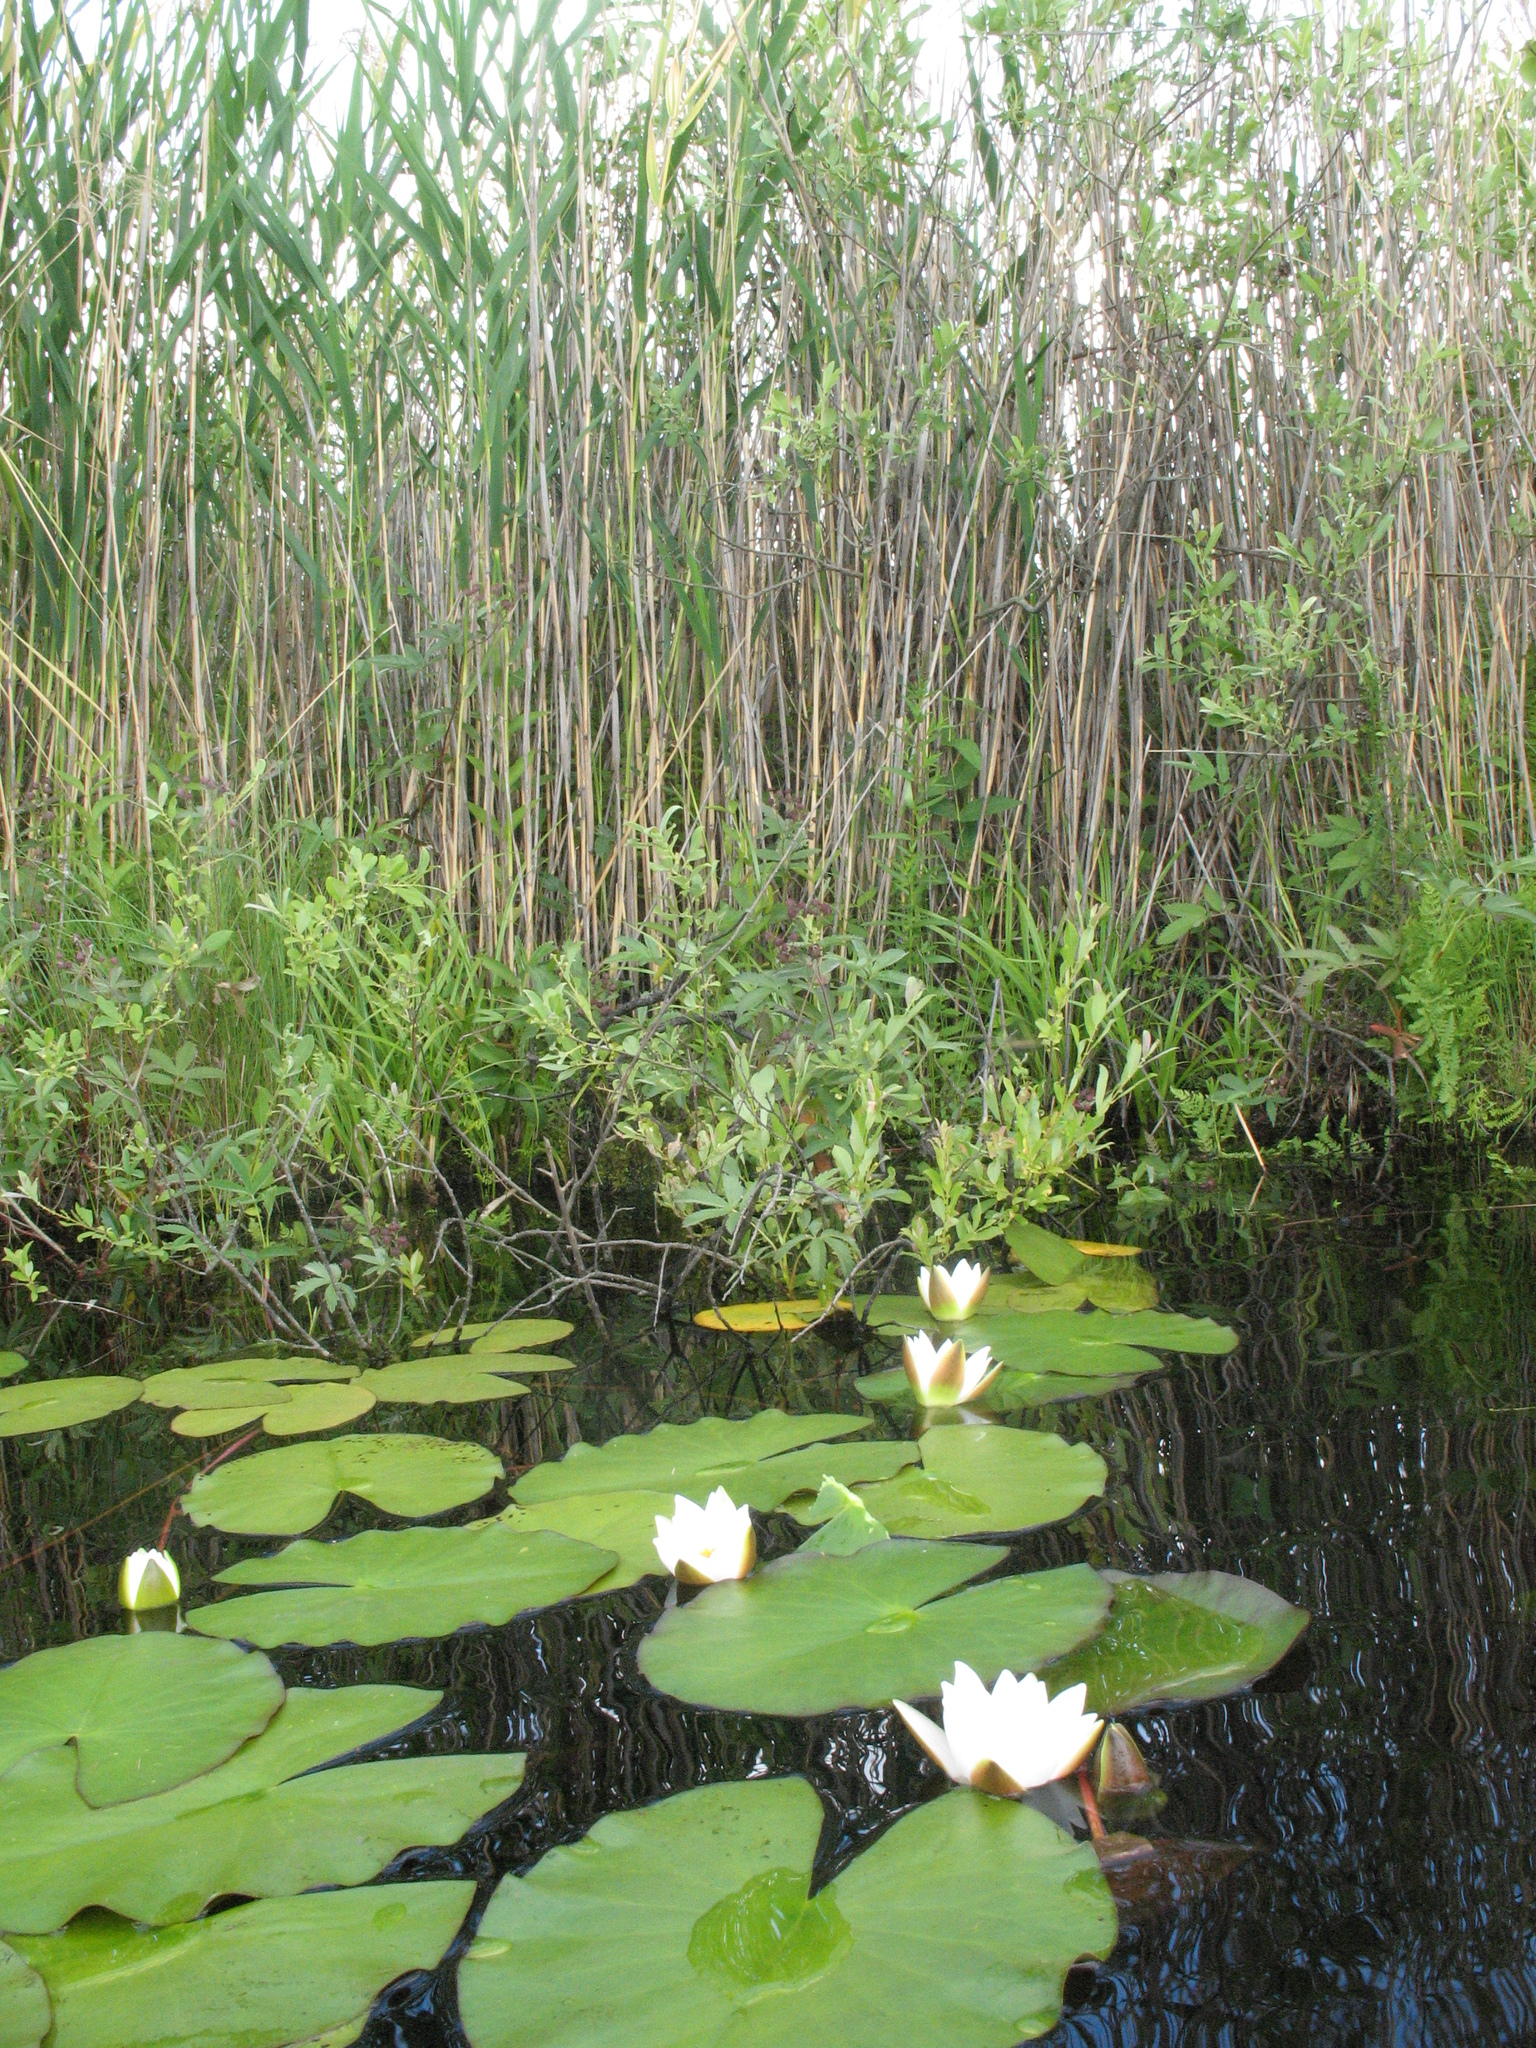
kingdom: Plantae
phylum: Tracheophyta
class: Magnoliopsida
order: Nymphaeales
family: Nymphaeaceae
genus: Nymphaea
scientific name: Nymphaea candida
